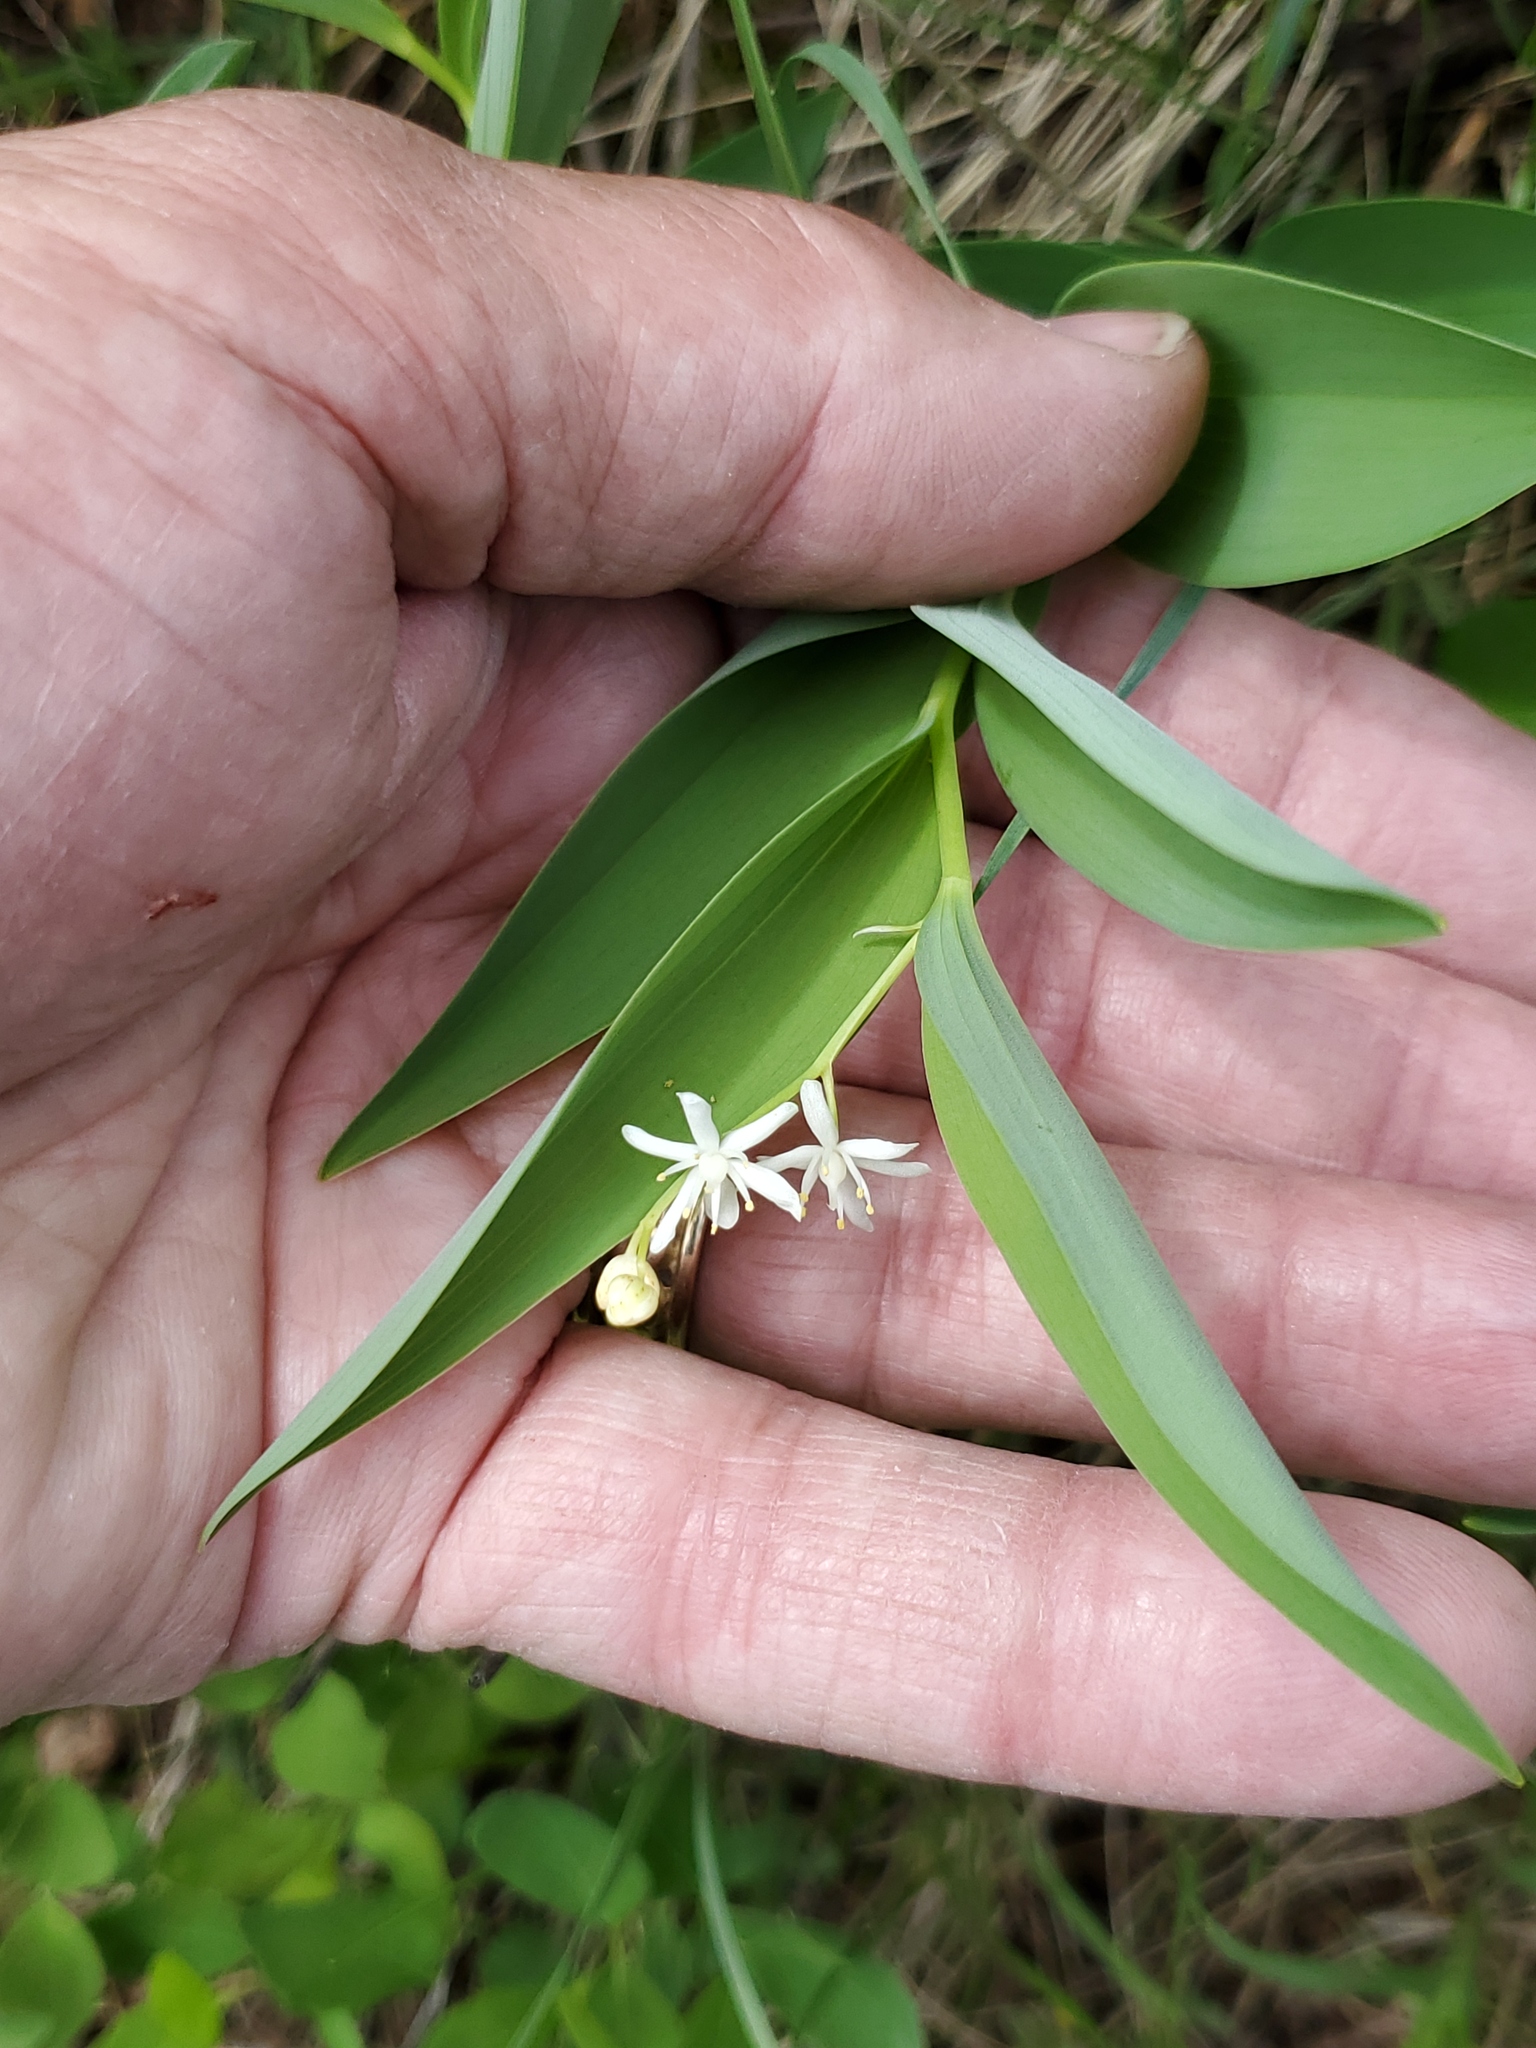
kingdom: Plantae
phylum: Tracheophyta
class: Liliopsida
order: Asparagales
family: Asparagaceae
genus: Maianthemum
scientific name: Maianthemum stellatum
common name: Little false solomon's seal
